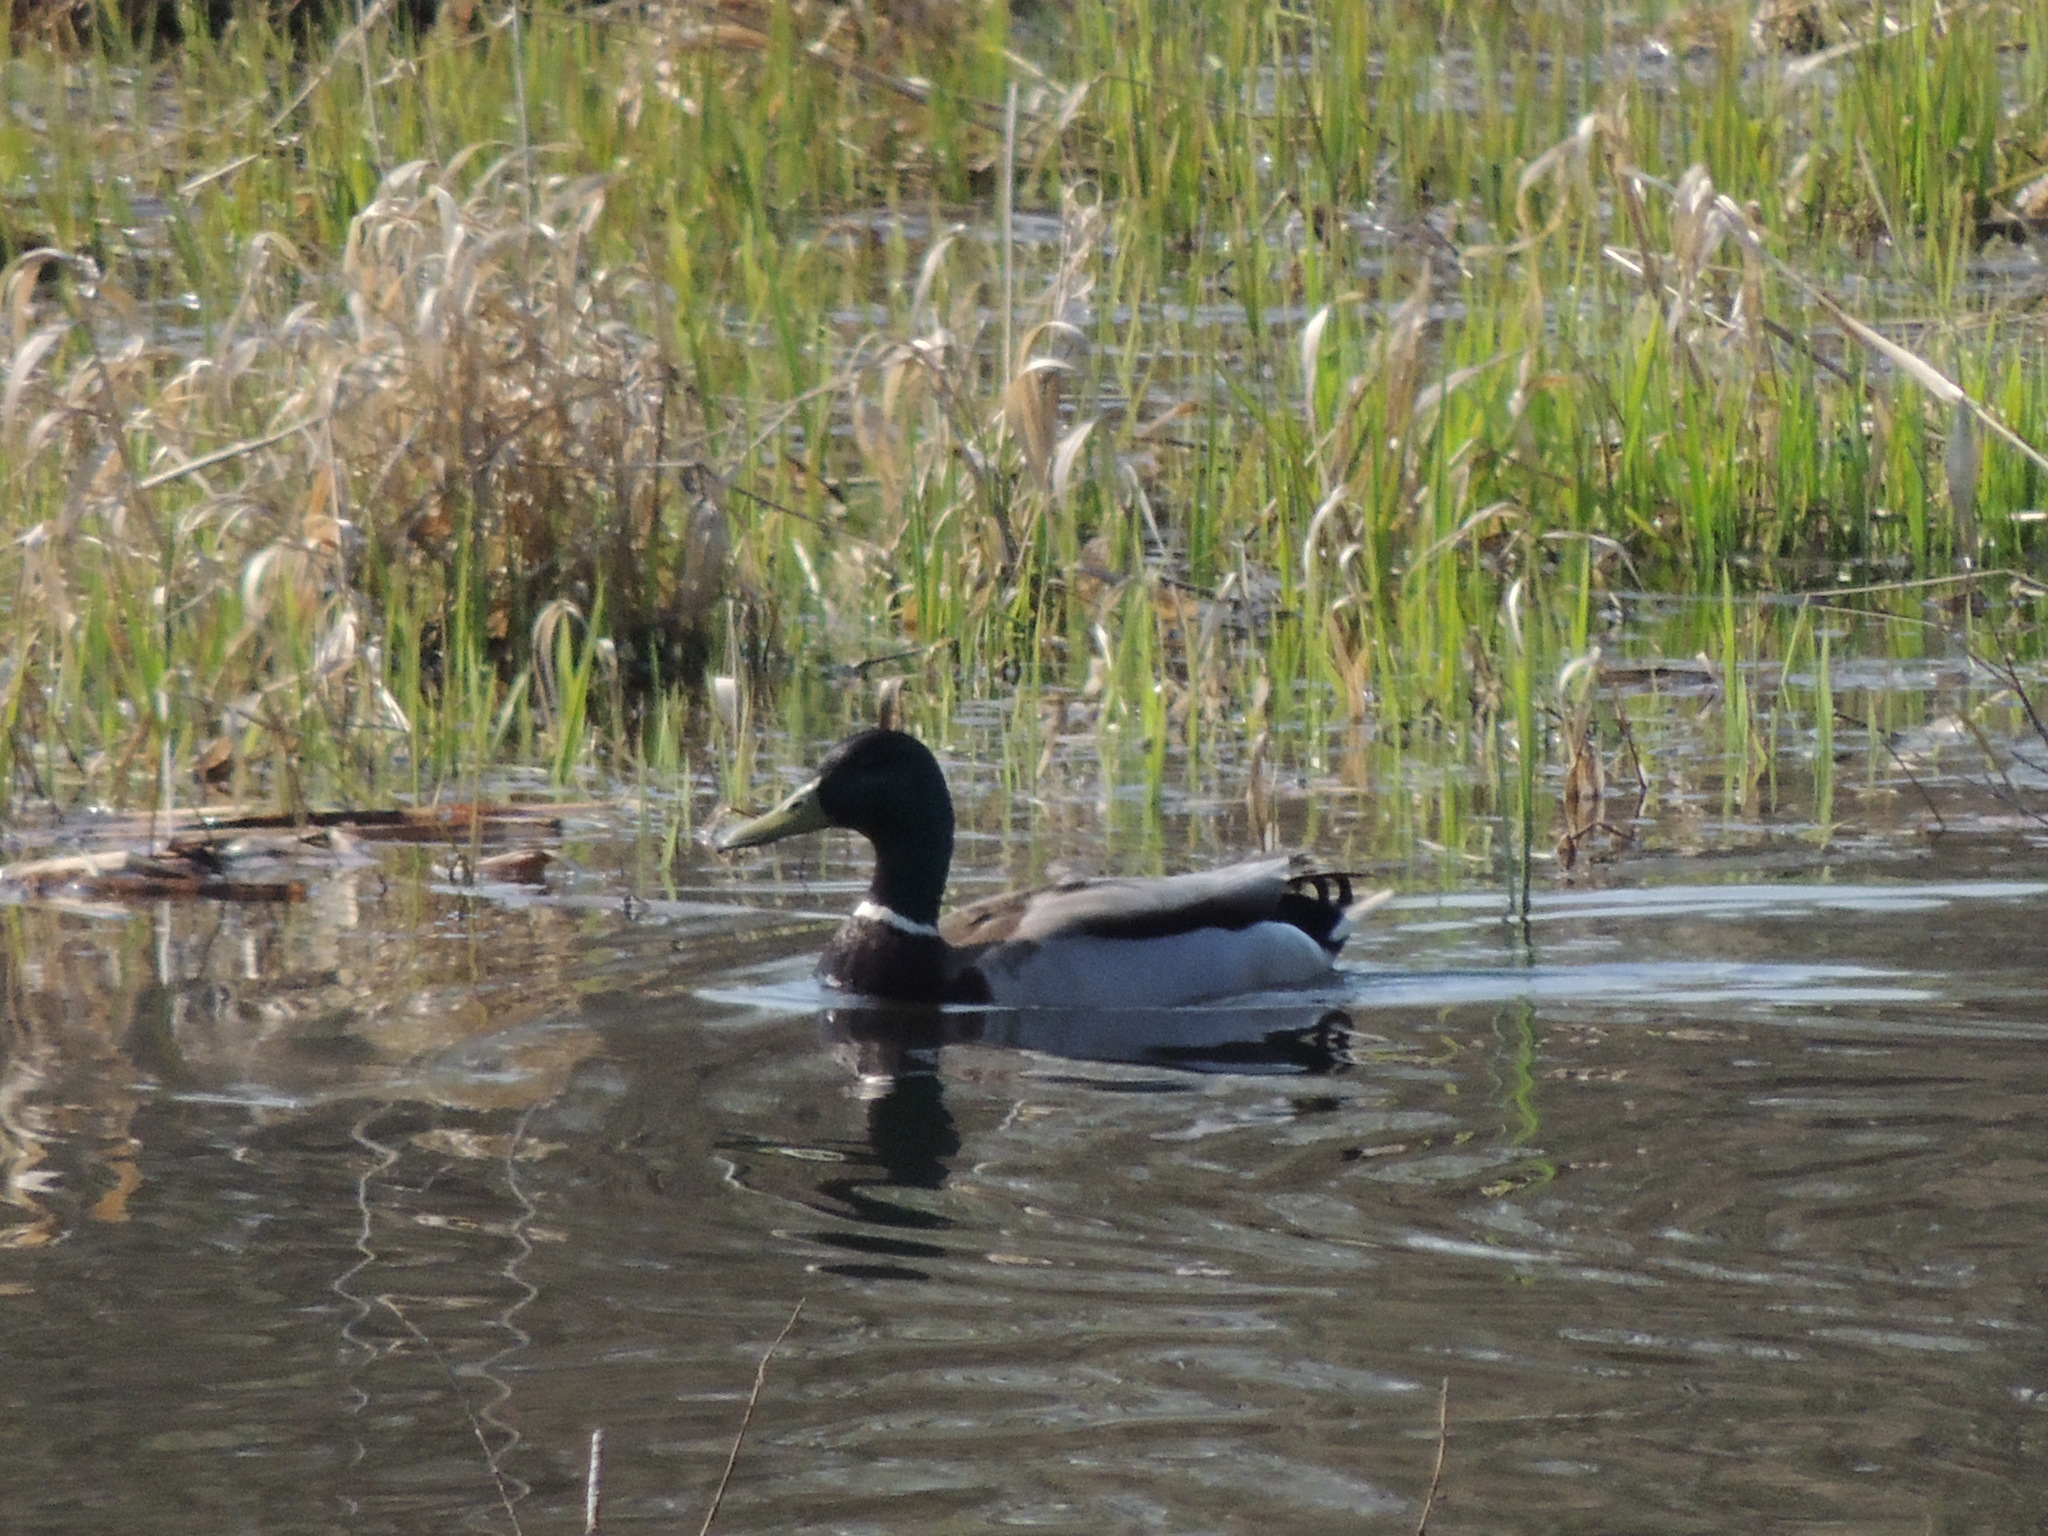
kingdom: Animalia
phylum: Chordata
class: Aves
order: Anseriformes
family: Anatidae
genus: Anas
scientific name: Anas platyrhynchos
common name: Mallard
